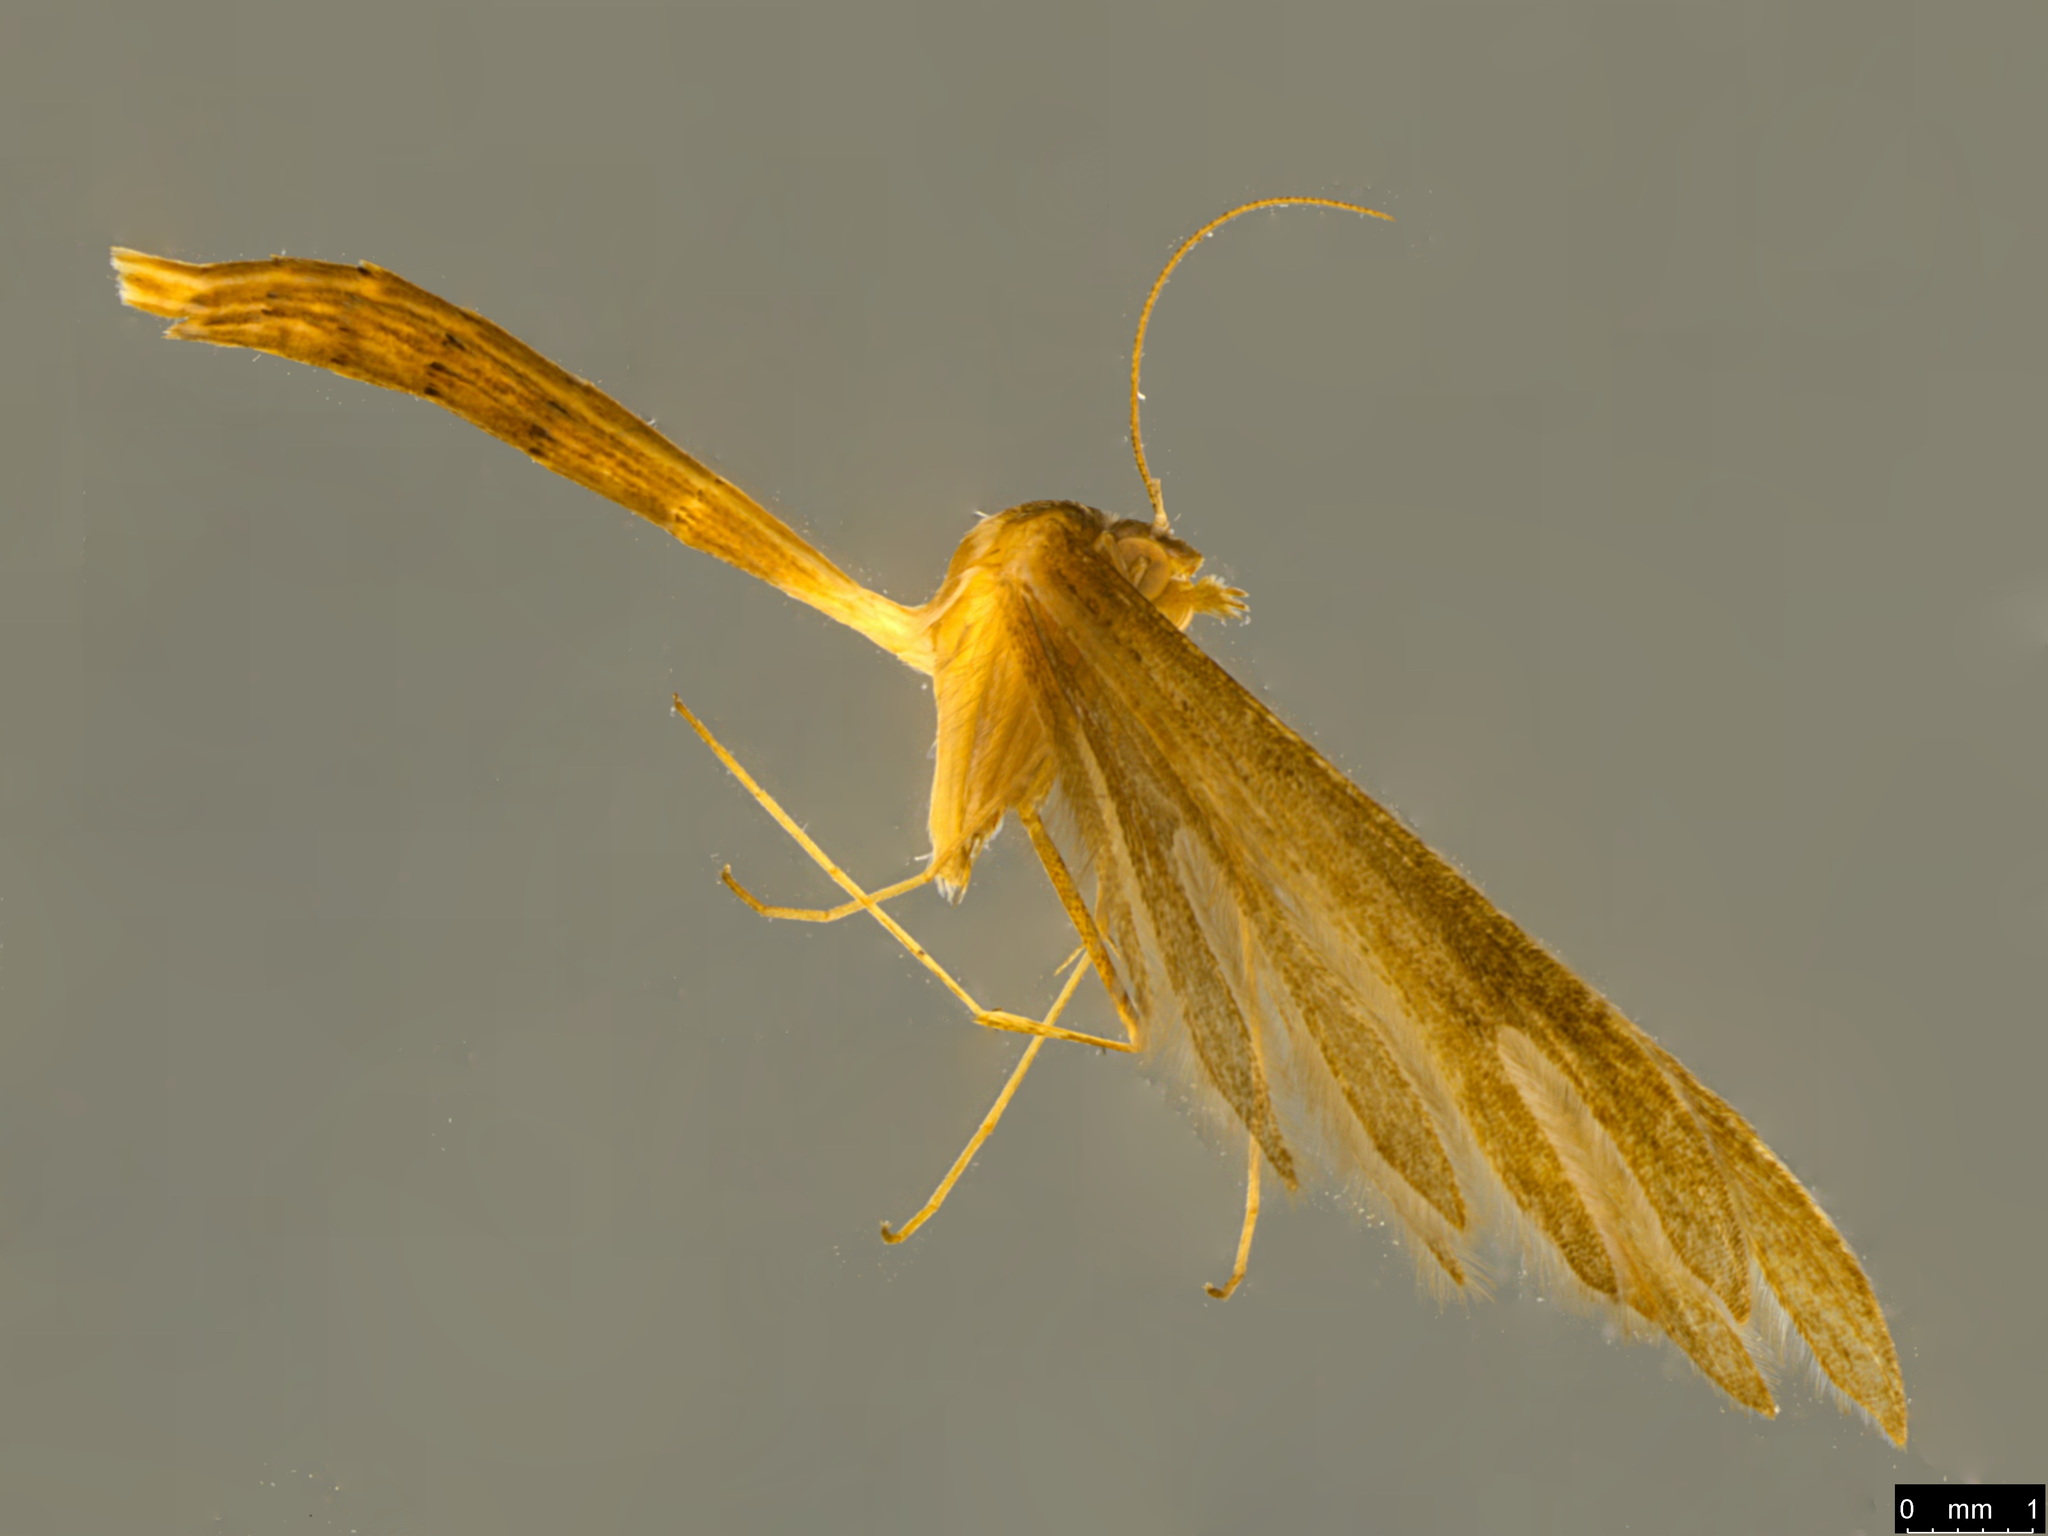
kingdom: Animalia
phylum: Arthropoda
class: Insecta
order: Lepidoptera
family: Pterophoridae
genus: Stenoptilia
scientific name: Stenoptilia zophodactylus
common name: Dowdy plume
